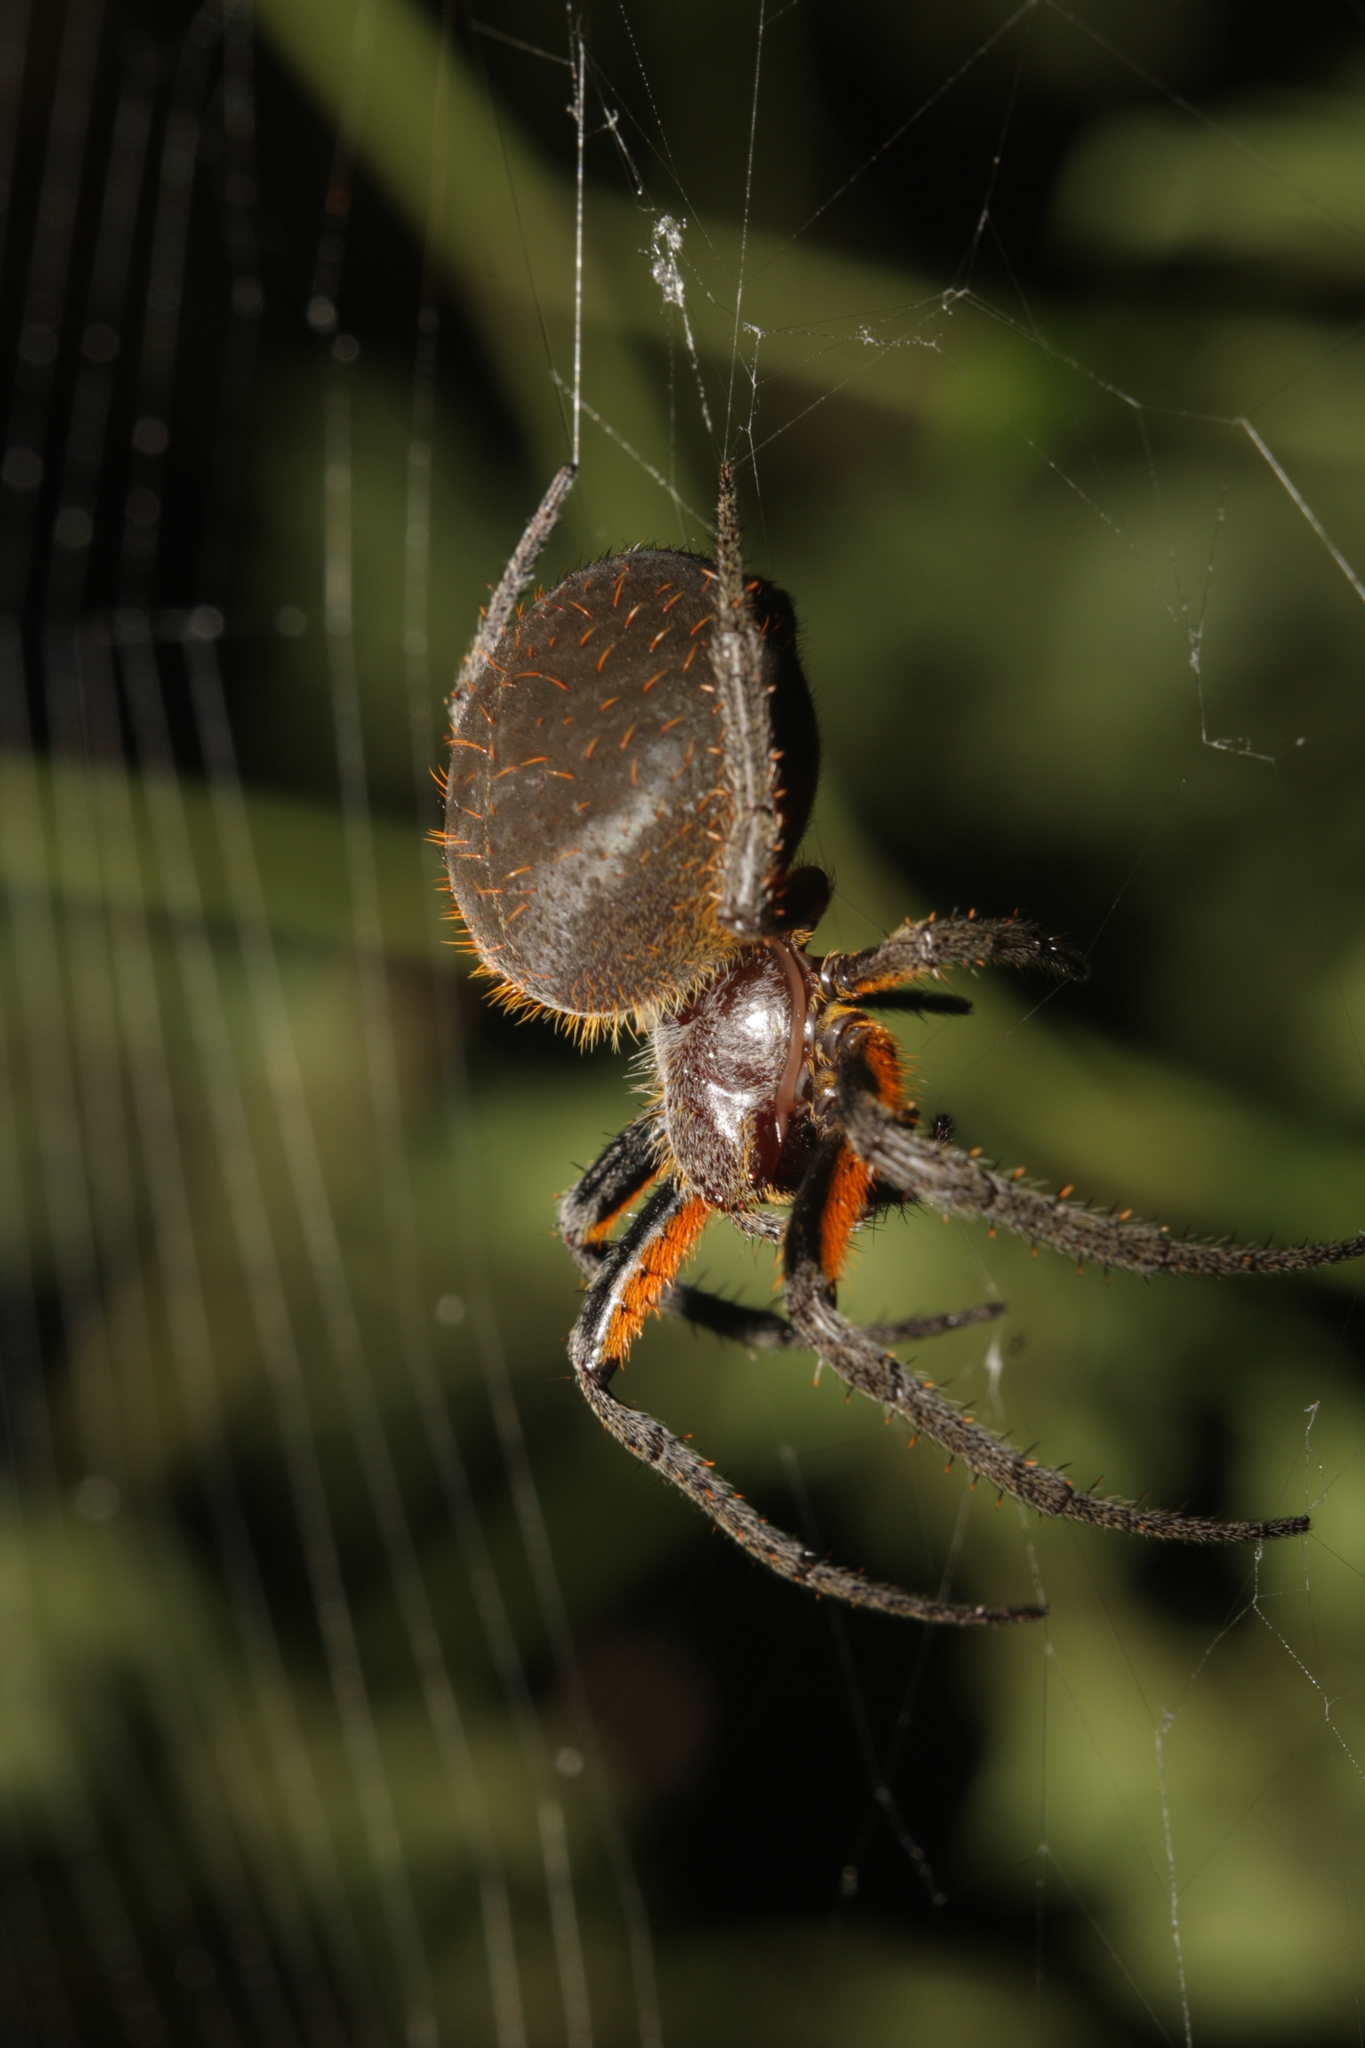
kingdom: Animalia
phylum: Arthropoda
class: Arachnida
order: Araneae
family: Araneidae
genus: Eriophora
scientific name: Eriophora fuliginea
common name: Orb weavers
